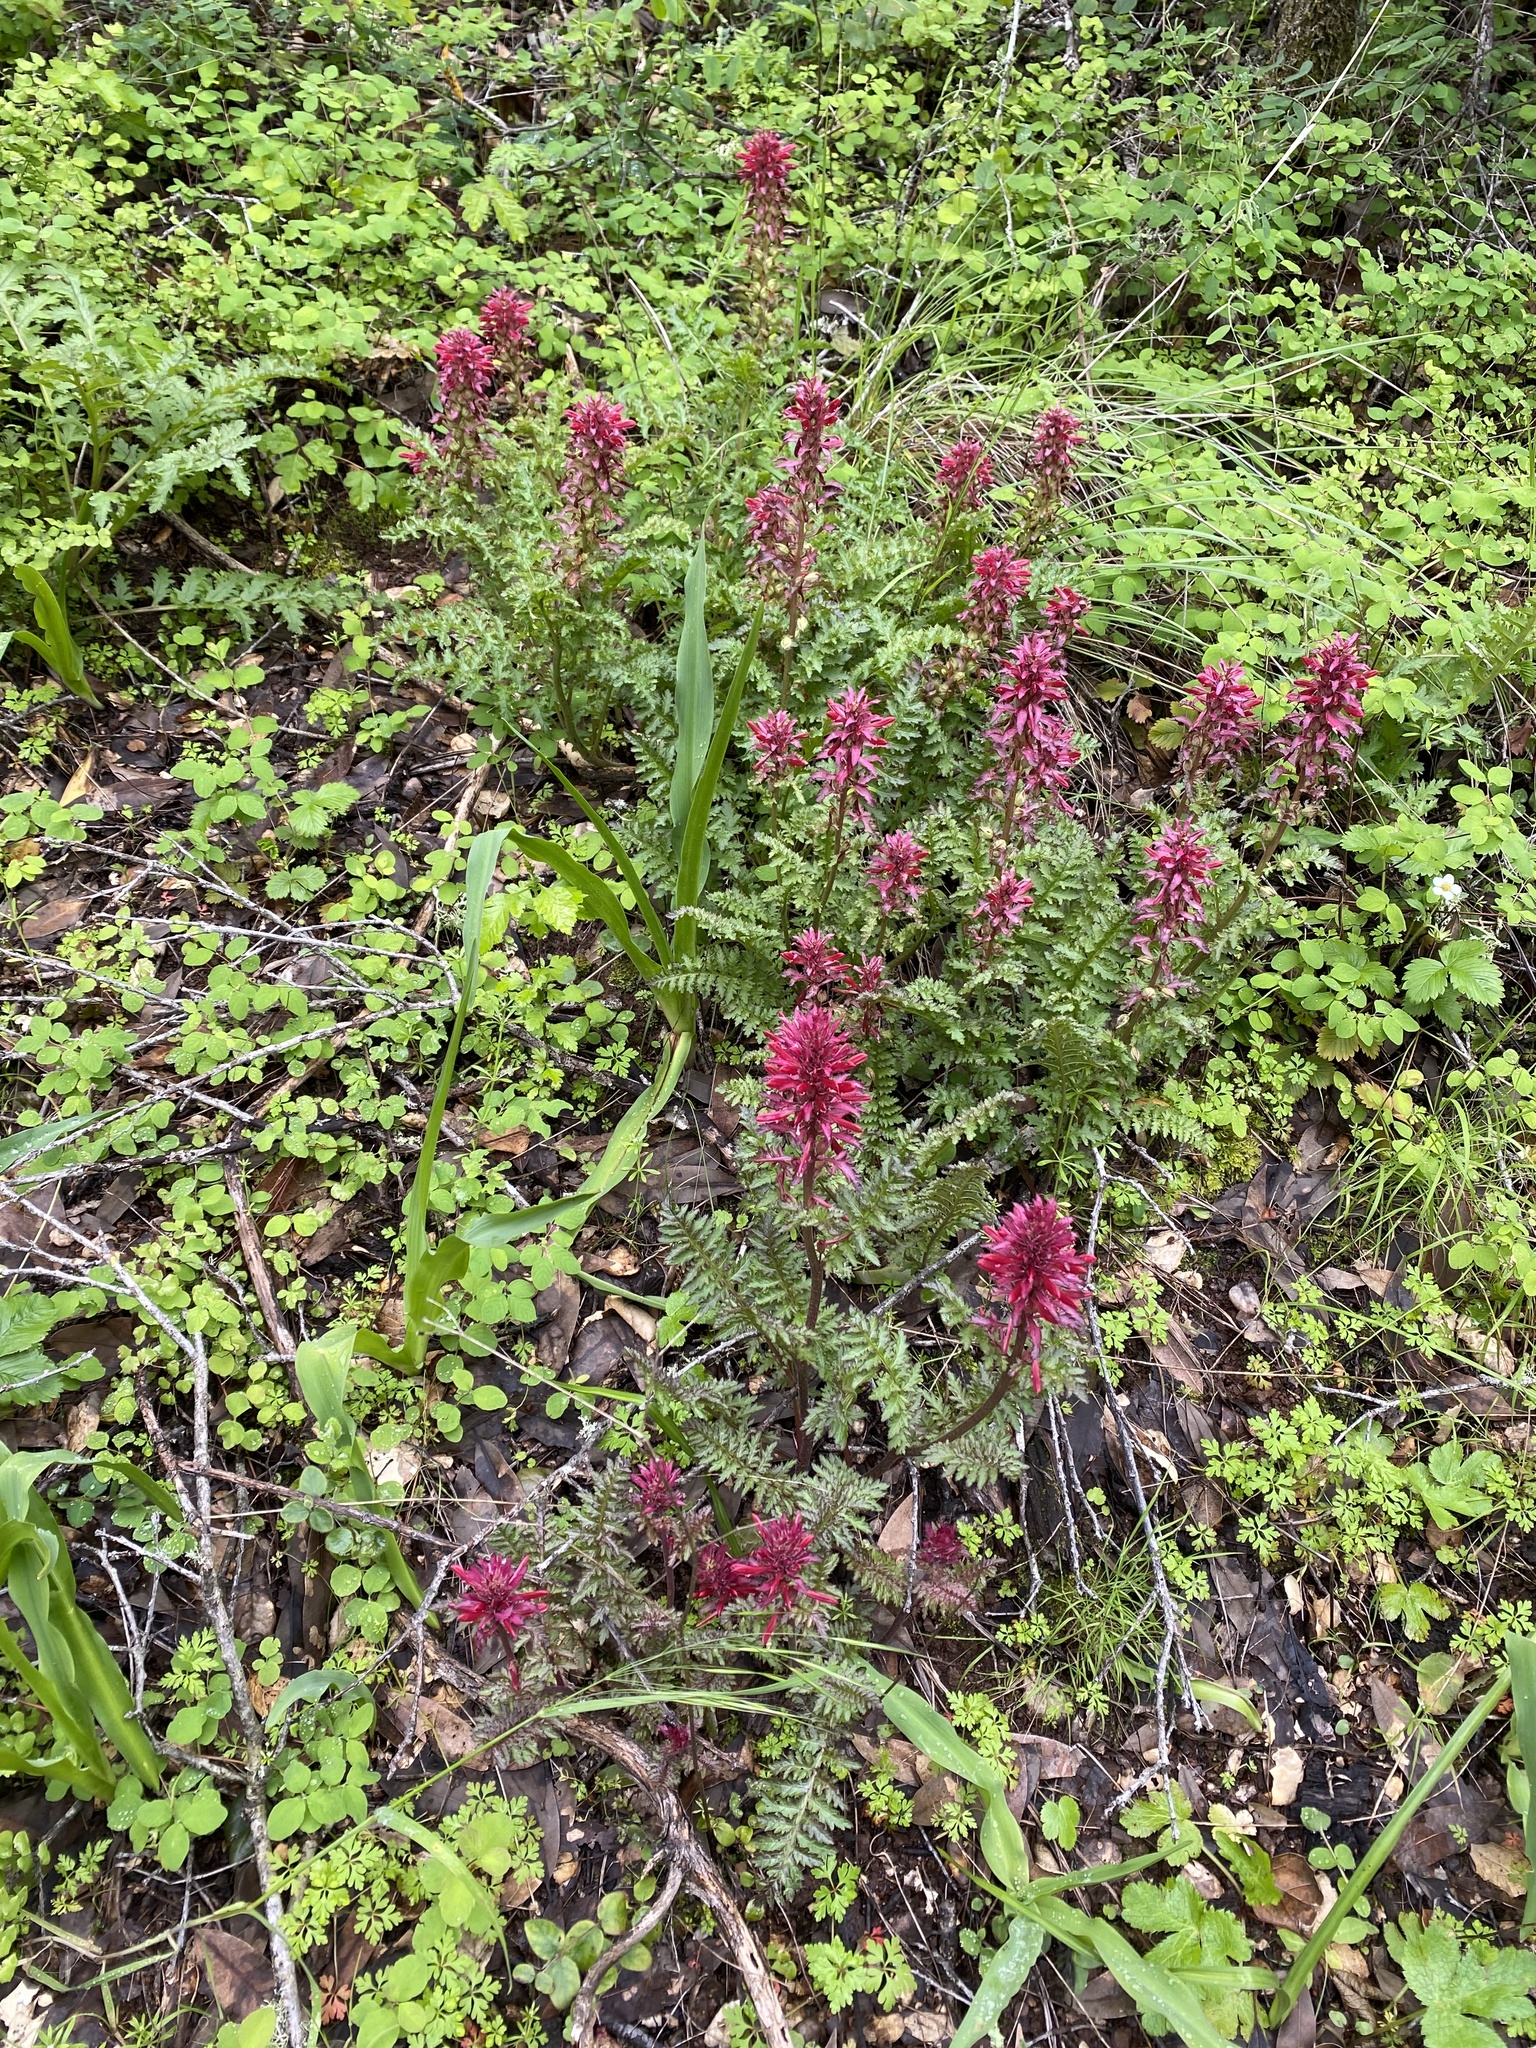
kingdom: Plantae
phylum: Tracheophyta
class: Magnoliopsida
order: Lamiales
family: Orobanchaceae
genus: Pedicularis
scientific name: Pedicularis densiflora
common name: Indian warrior
